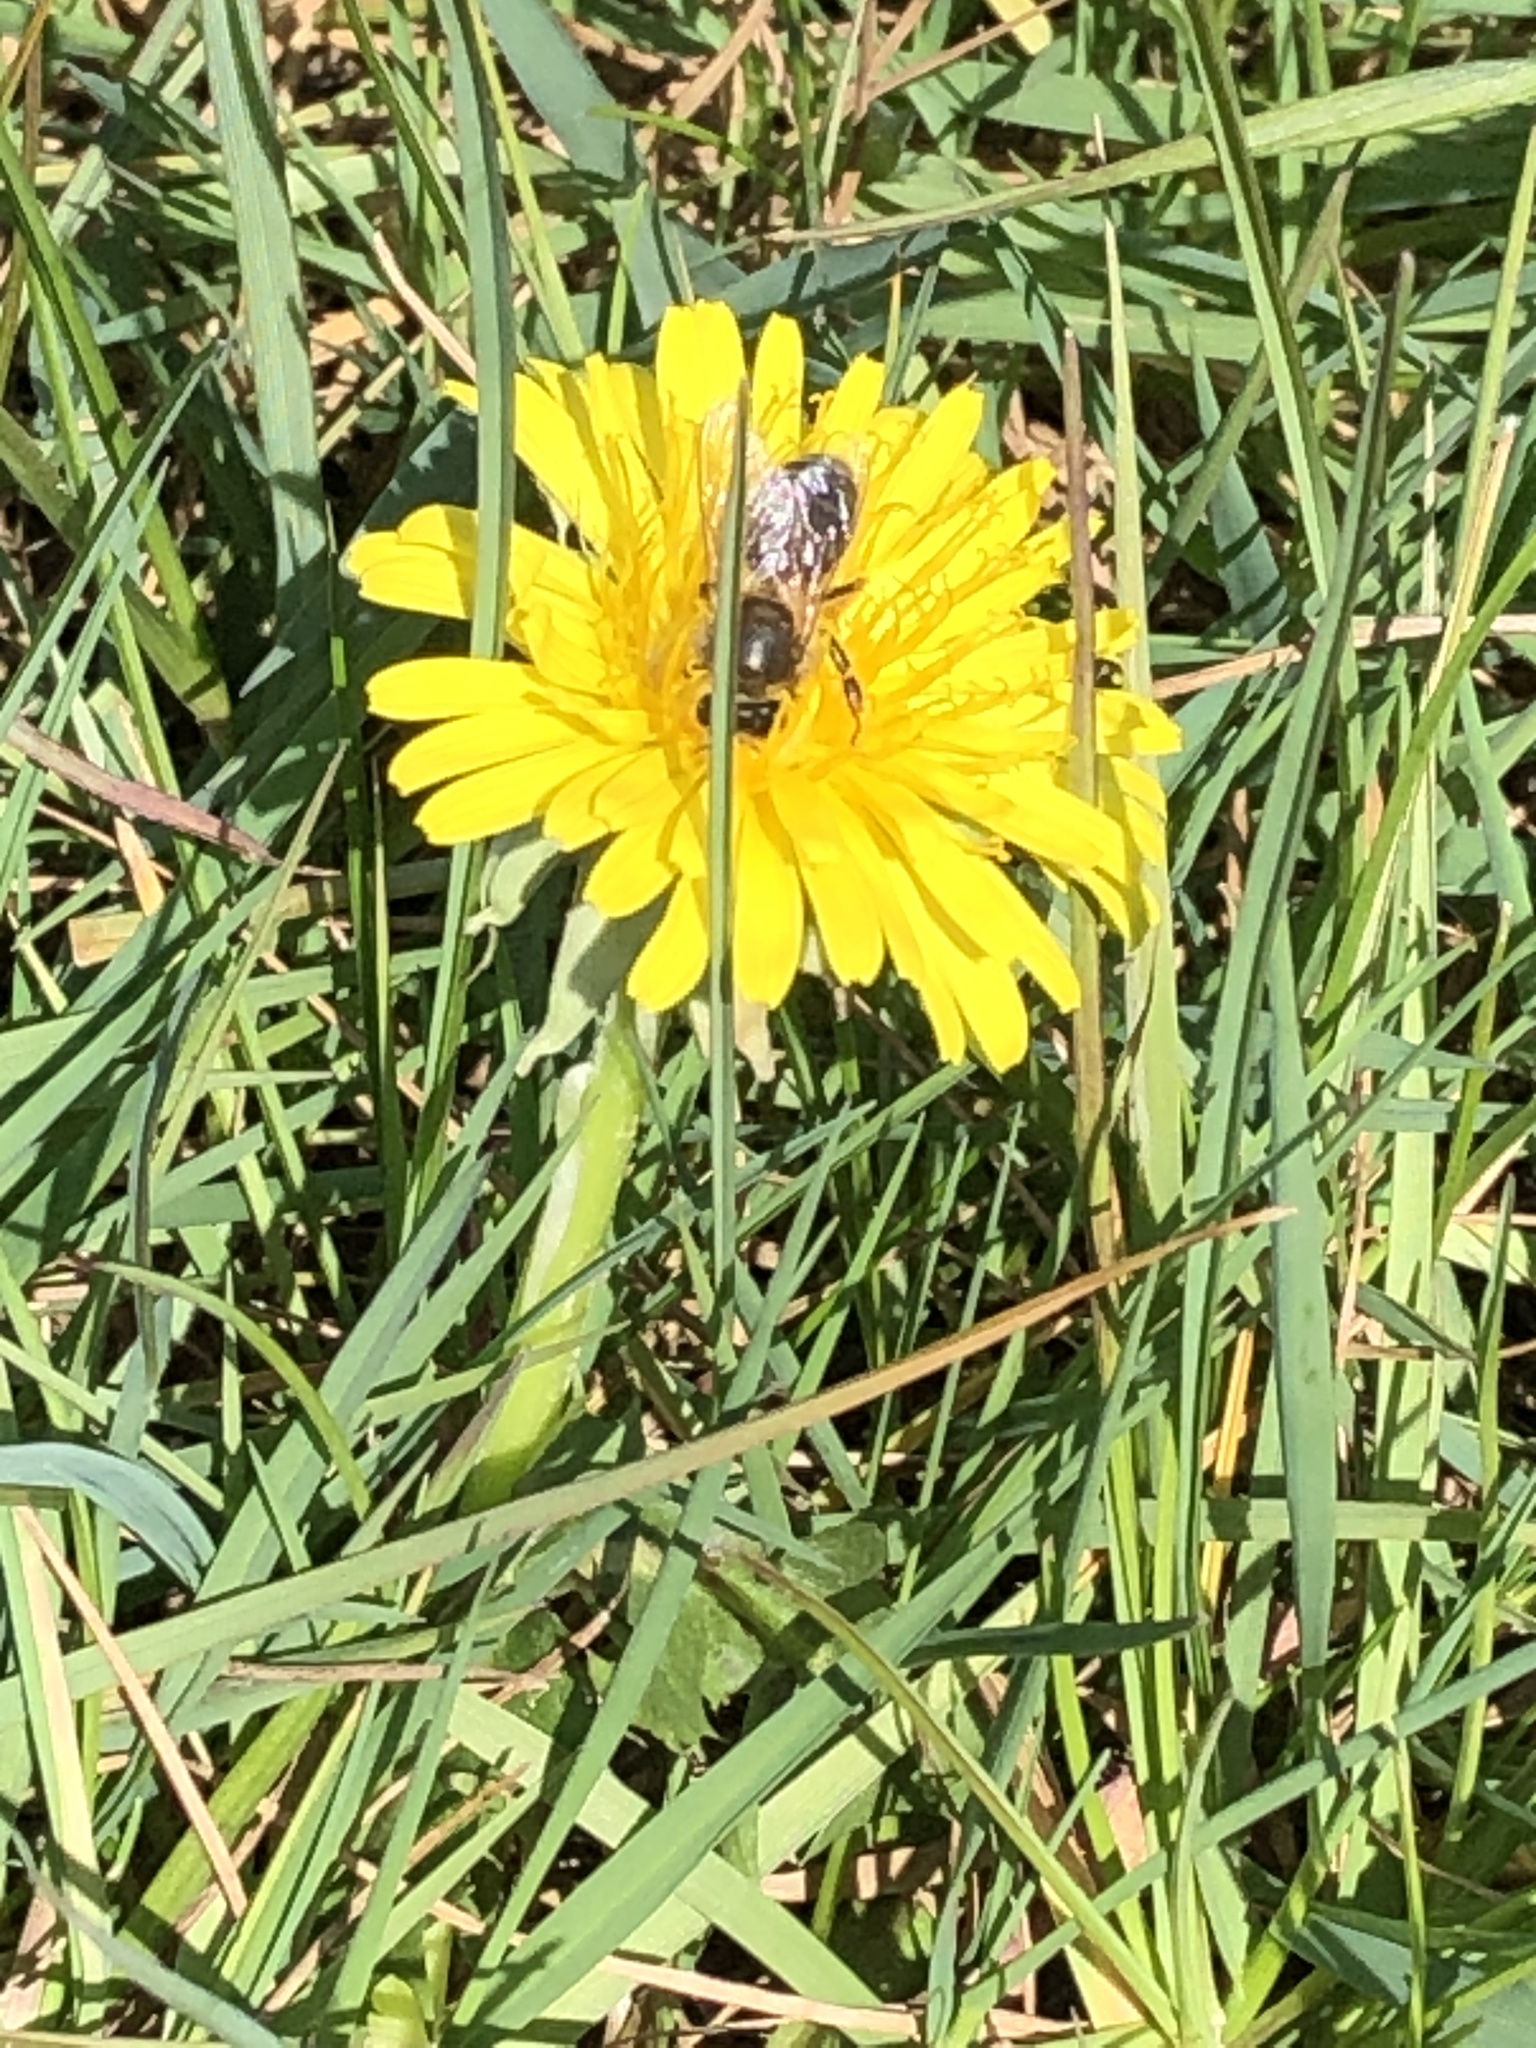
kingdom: Animalia
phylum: Arthropoda
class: Insecta
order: Hymenoptera
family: Apidae
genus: Apis
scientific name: Apis mellifera
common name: Honey bee
